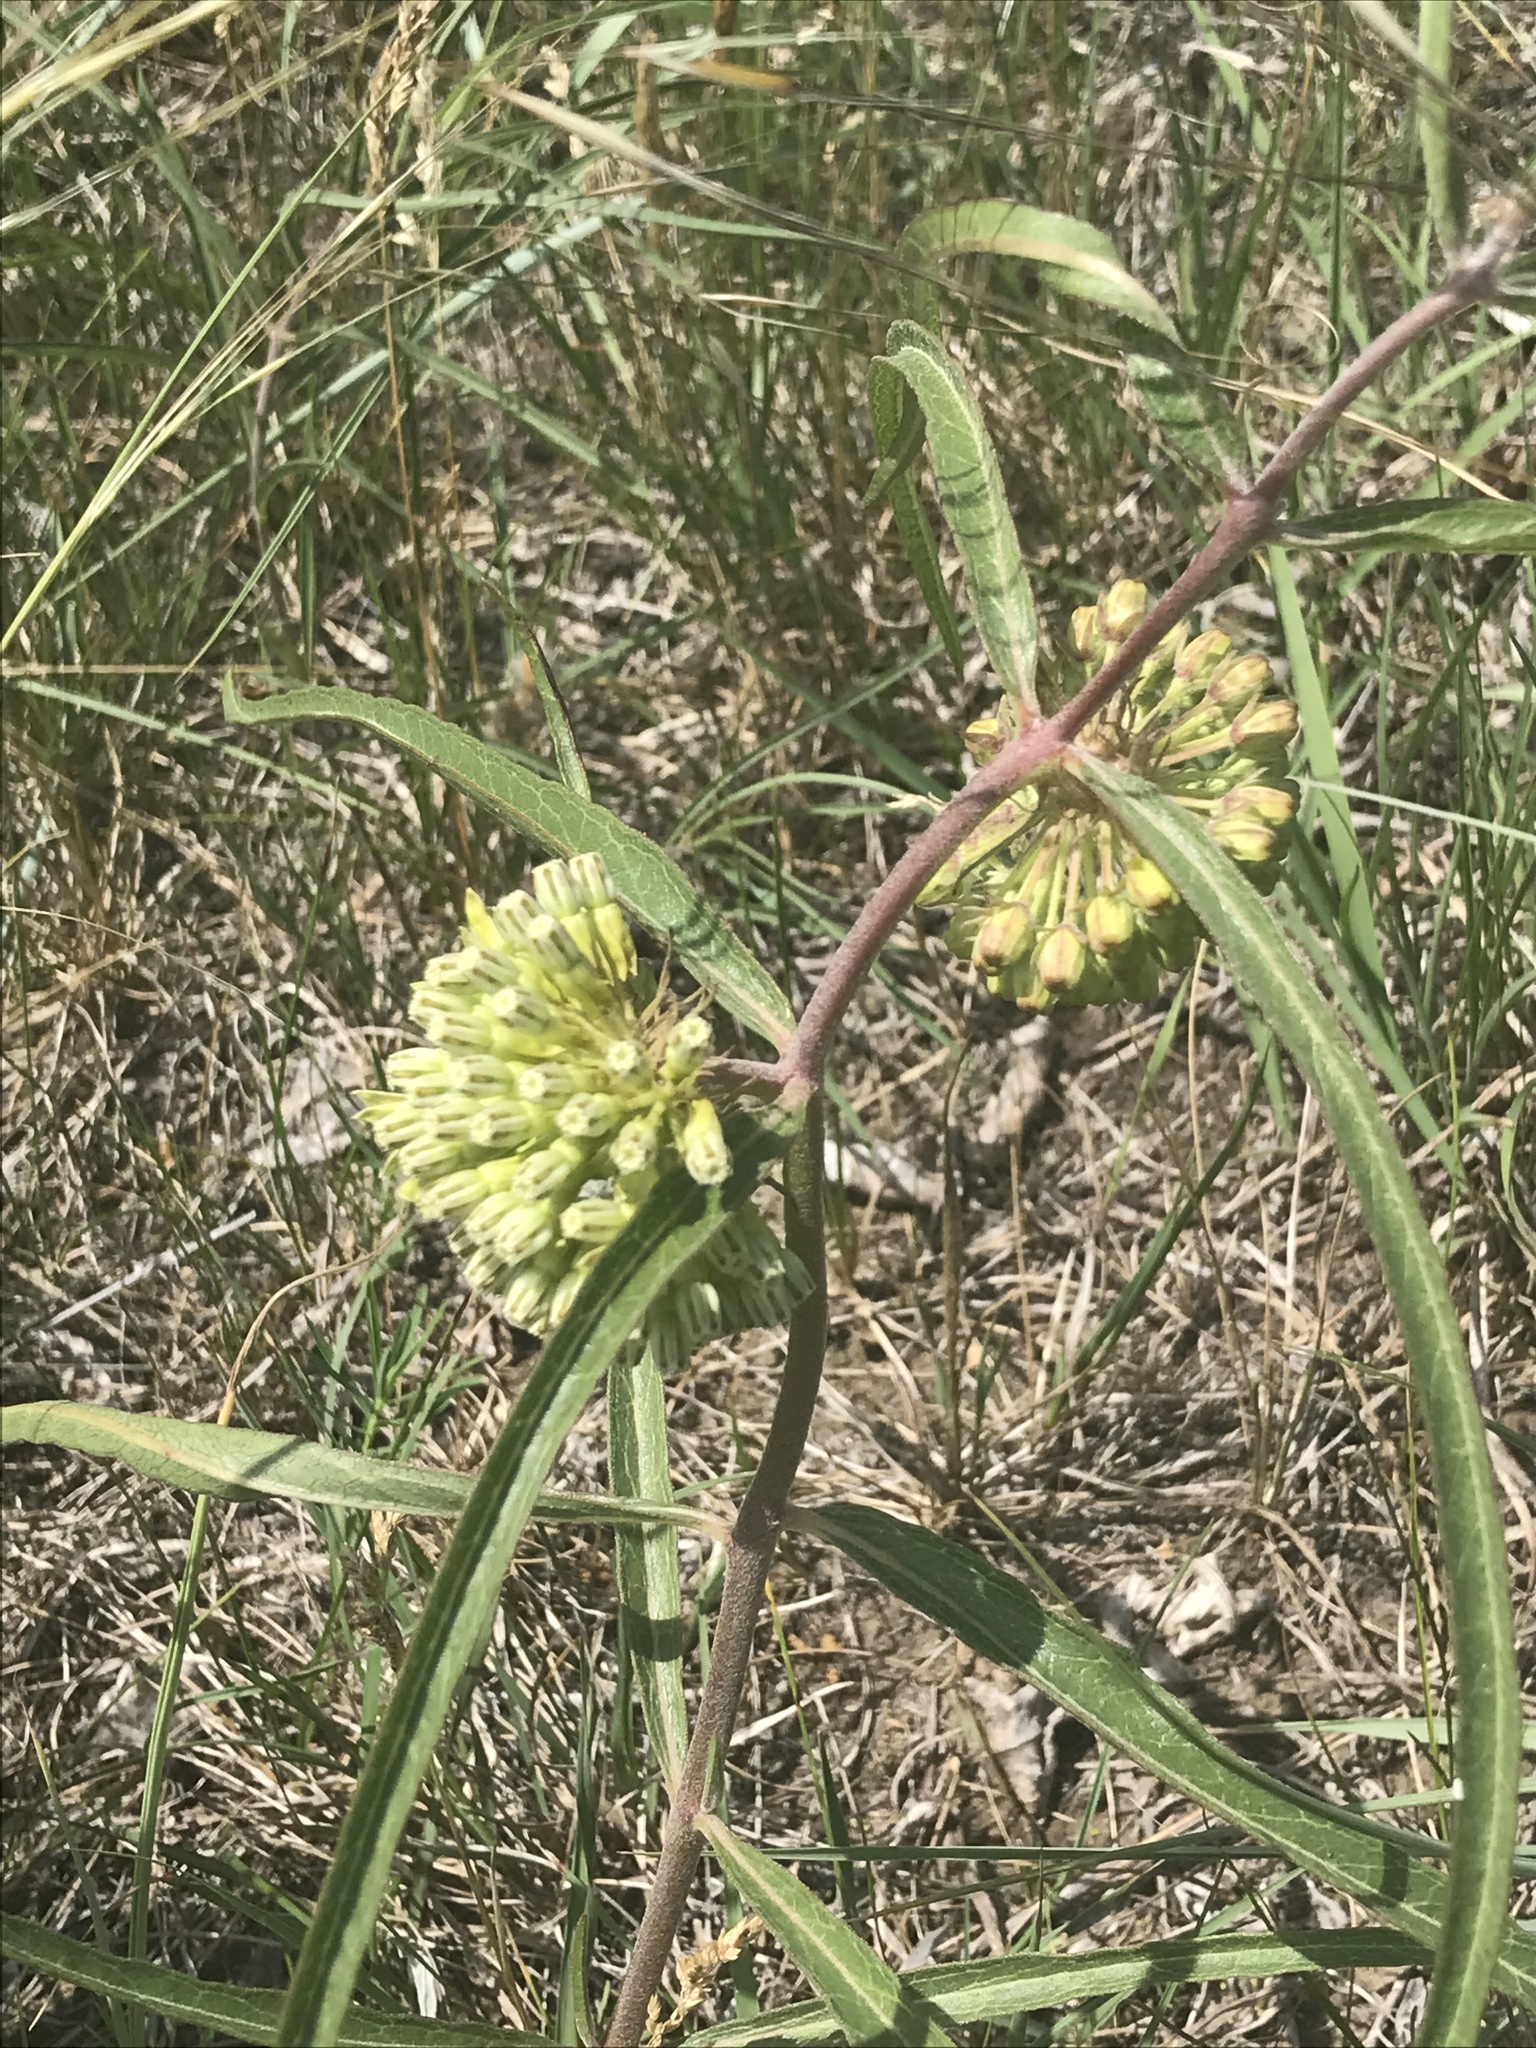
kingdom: Plantae
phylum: Tracheophyta
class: Magnoliopsida
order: Gentianales
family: Apocynaceae
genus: Asclepias
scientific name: Asclepias viridiflora
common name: Green comet milkweed
